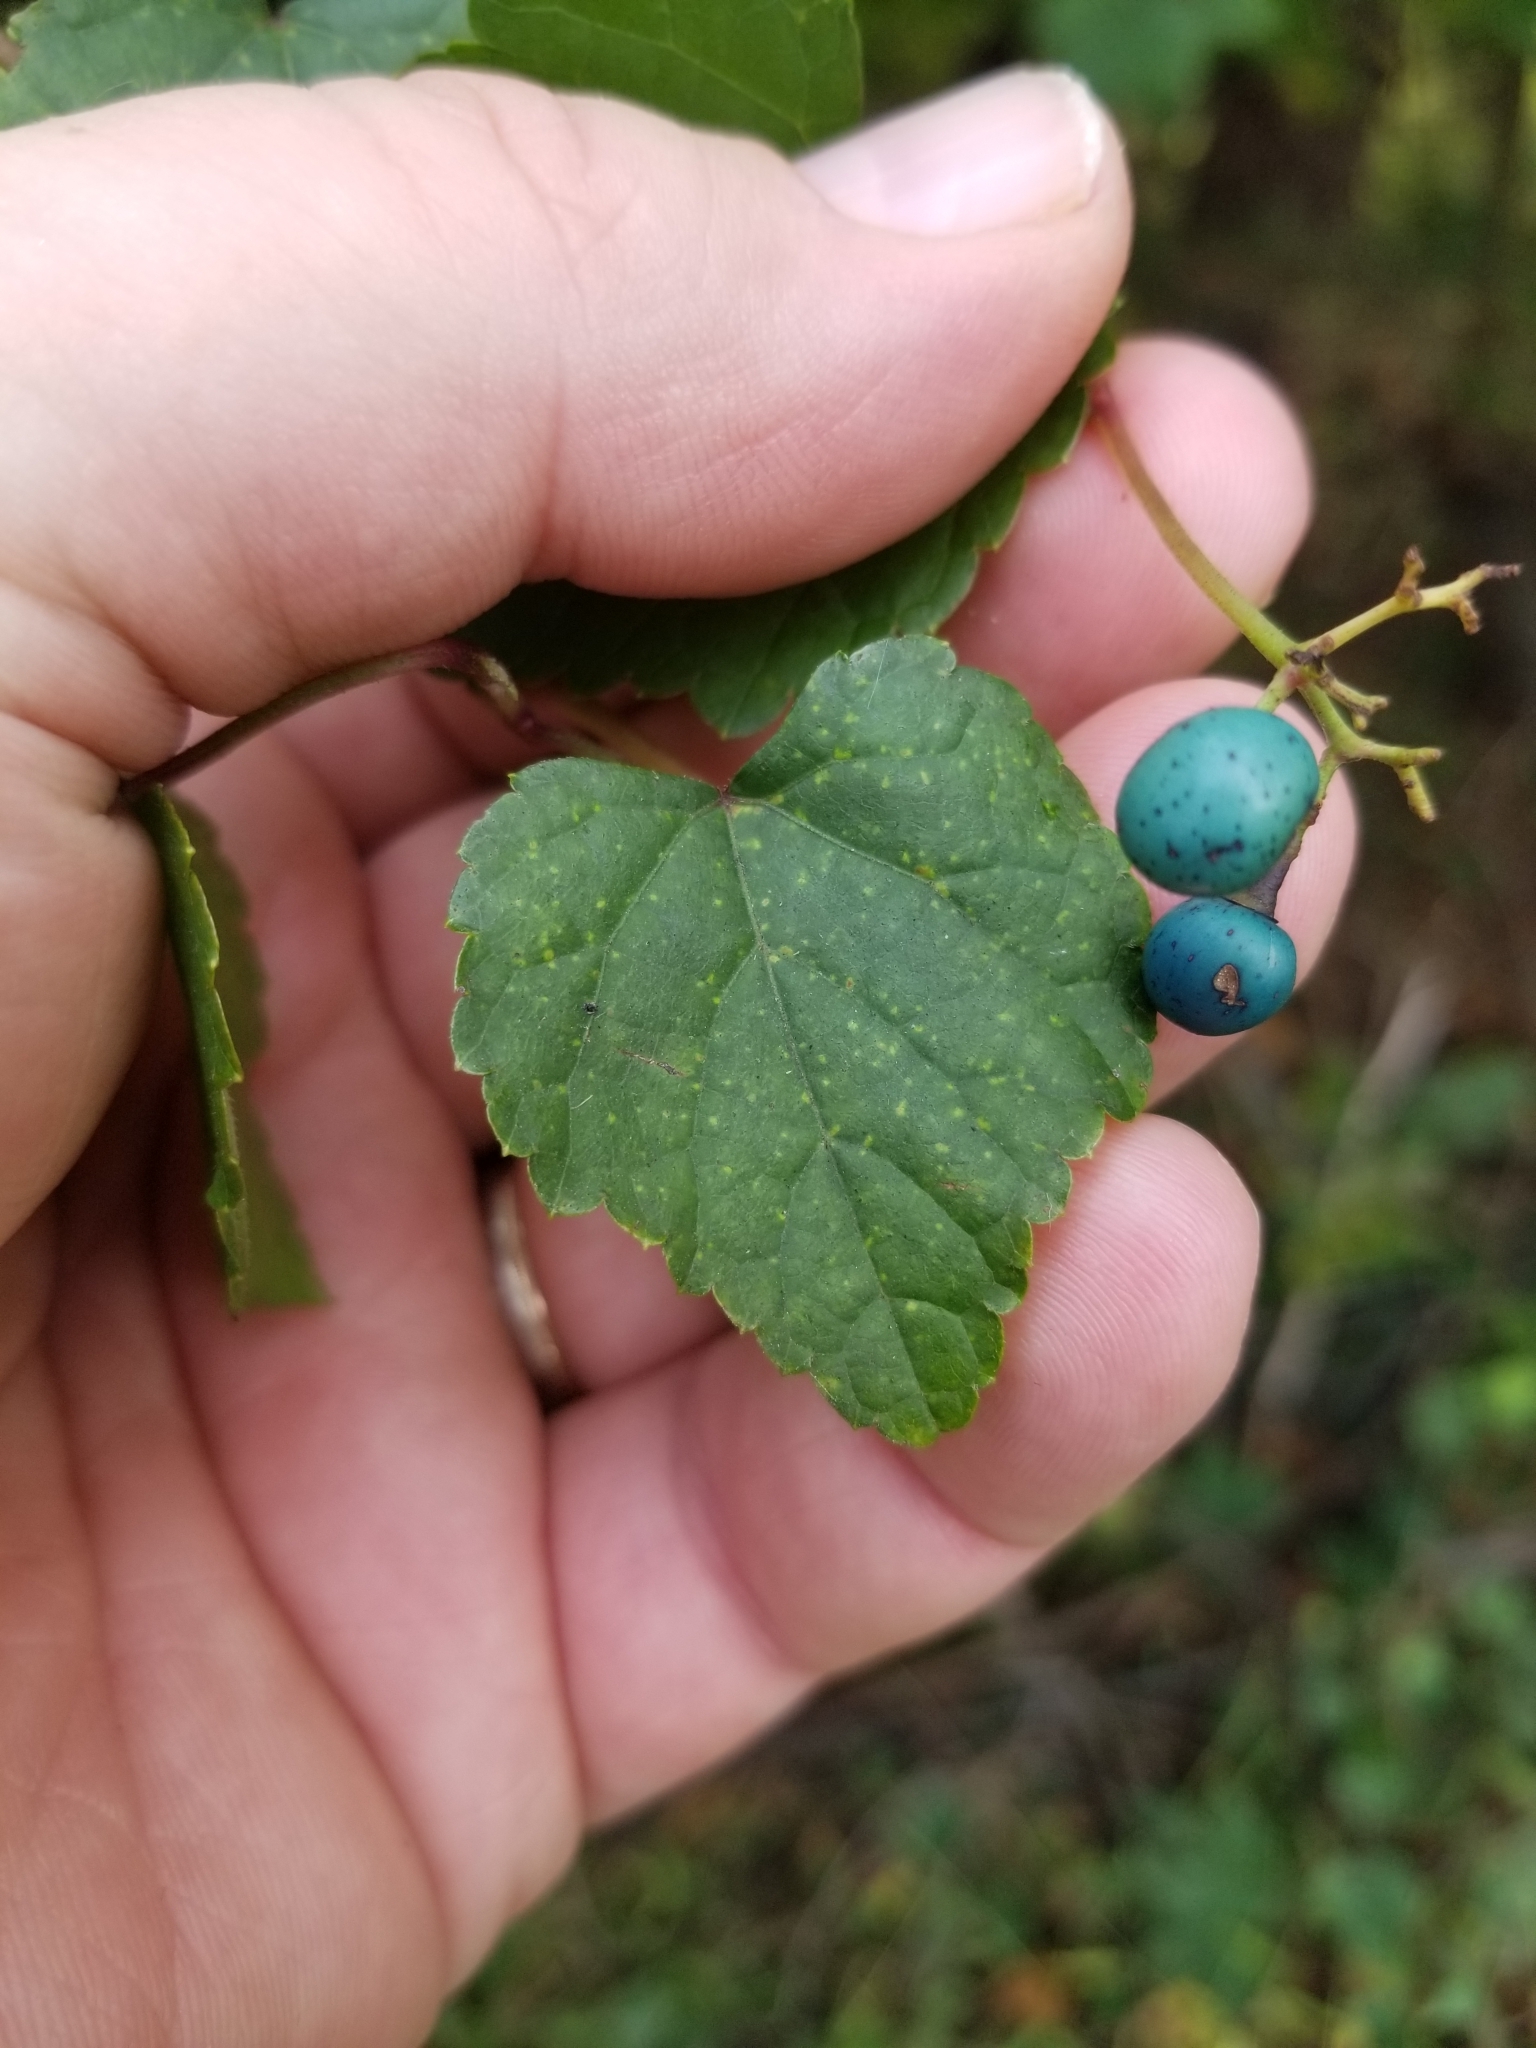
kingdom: Plantae
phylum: Tracheophyta
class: Magnoliopsida
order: Vitales
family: Vitaceae
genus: Ampelopsis
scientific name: Ampelopsis glandulosa
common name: Amur peppervine
